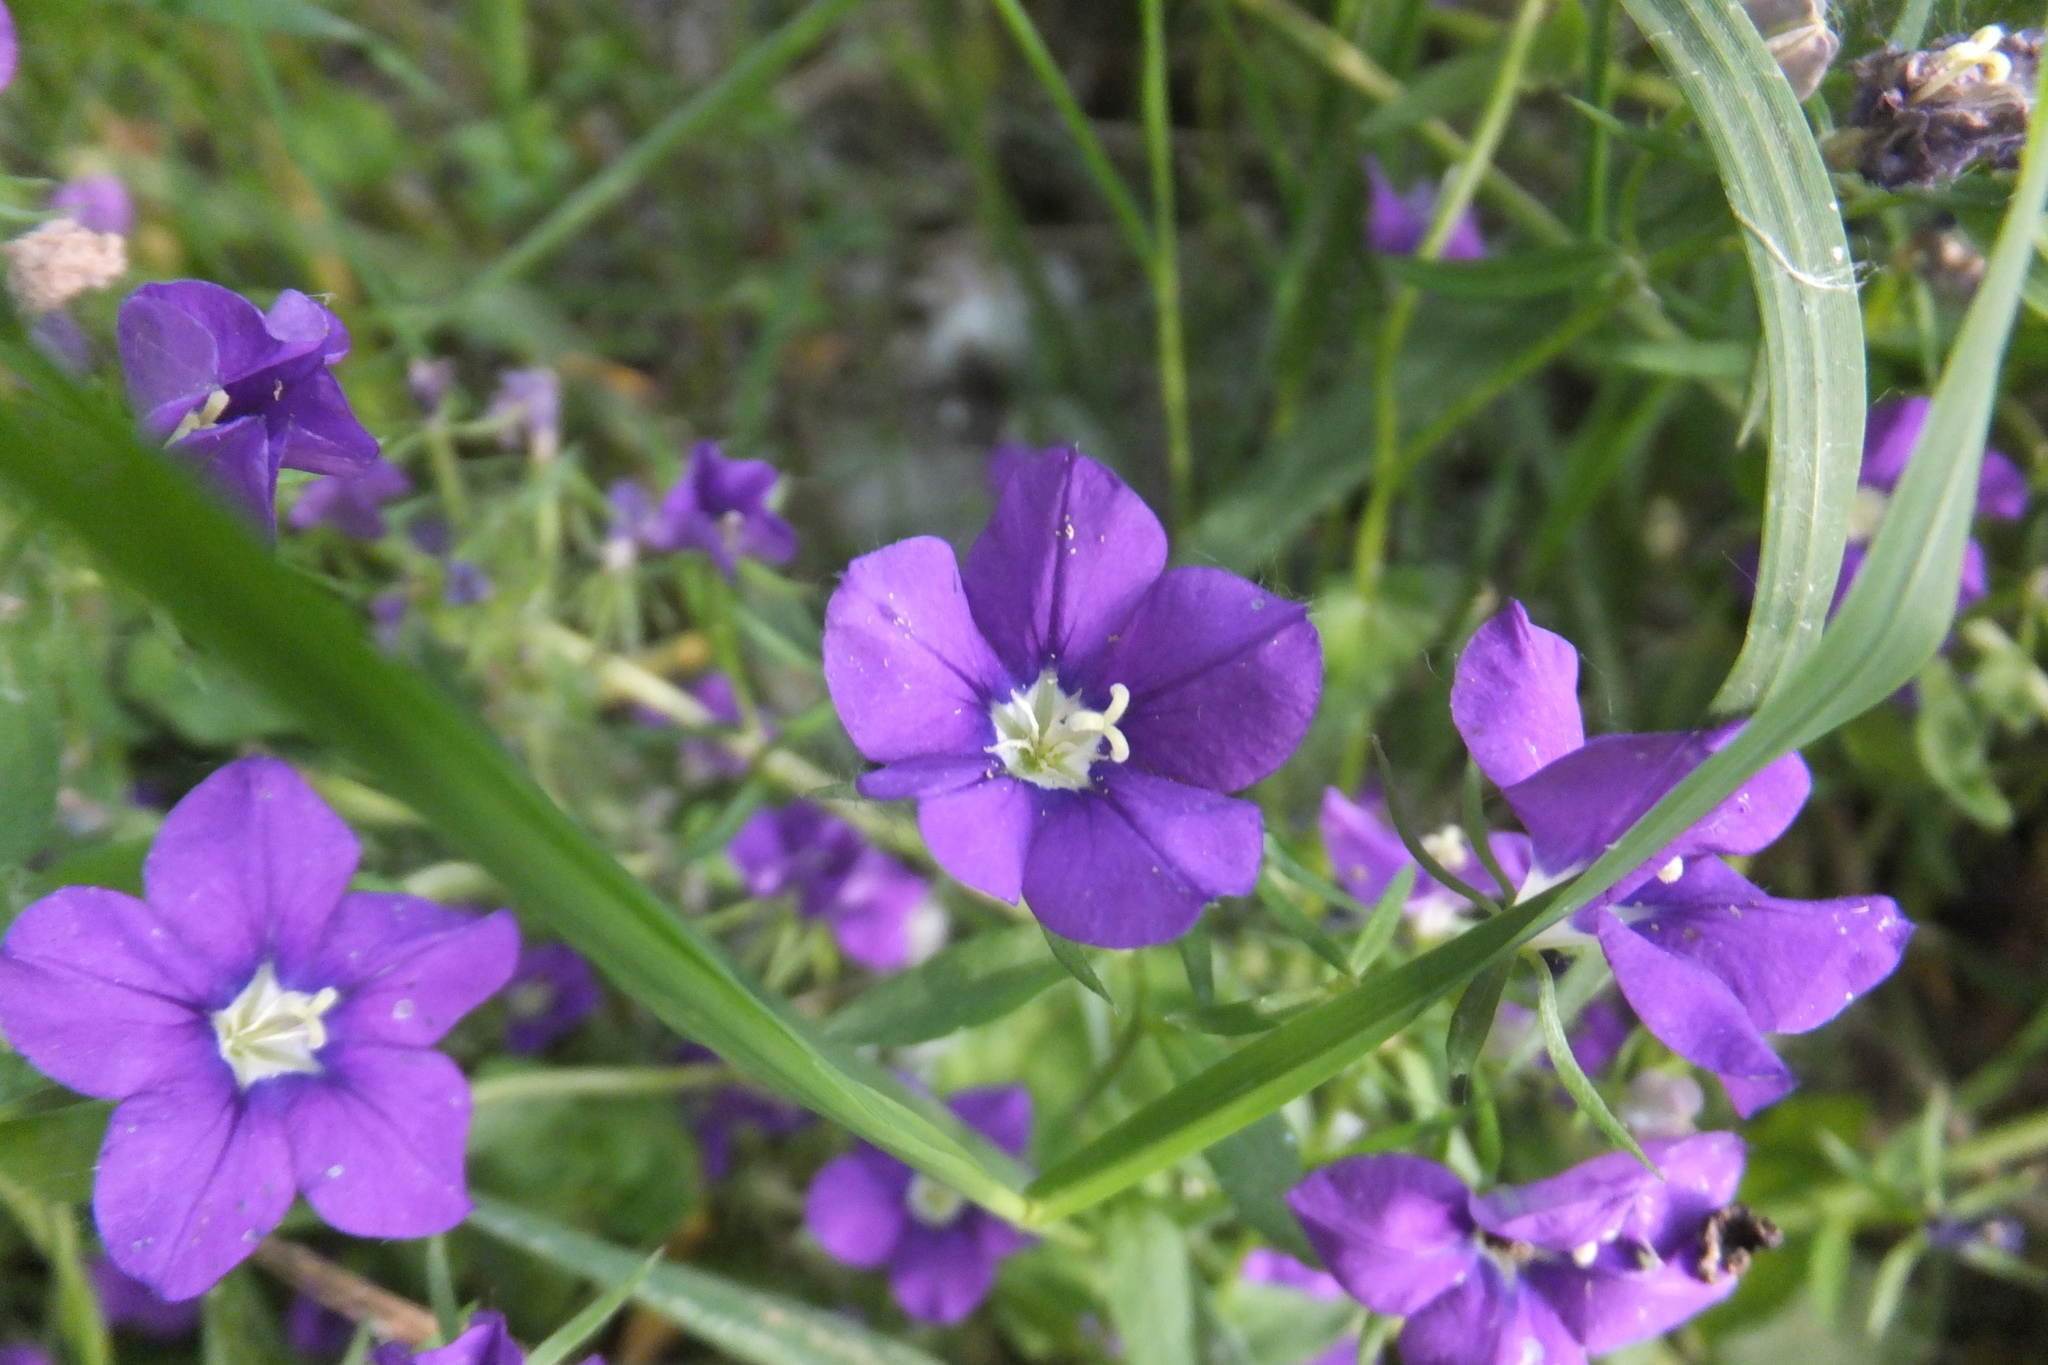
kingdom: Plantae
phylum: Tracheophyta
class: Magnoliopsida
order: Asterales
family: Campanulaceae
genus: Legousia
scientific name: Legousia speculum-veneris
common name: Large venus's-looking-glass
